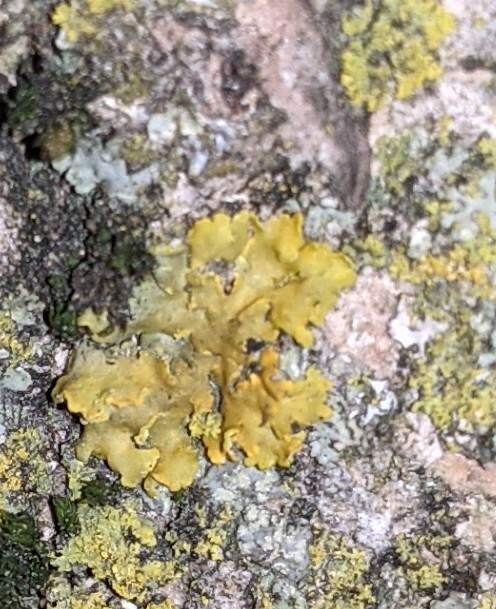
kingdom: Fungi
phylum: Ascomycota
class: Lecanoromycetes
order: Teloschistales
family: Teloschistaceae
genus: Oxneria
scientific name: Oxneria fallax
